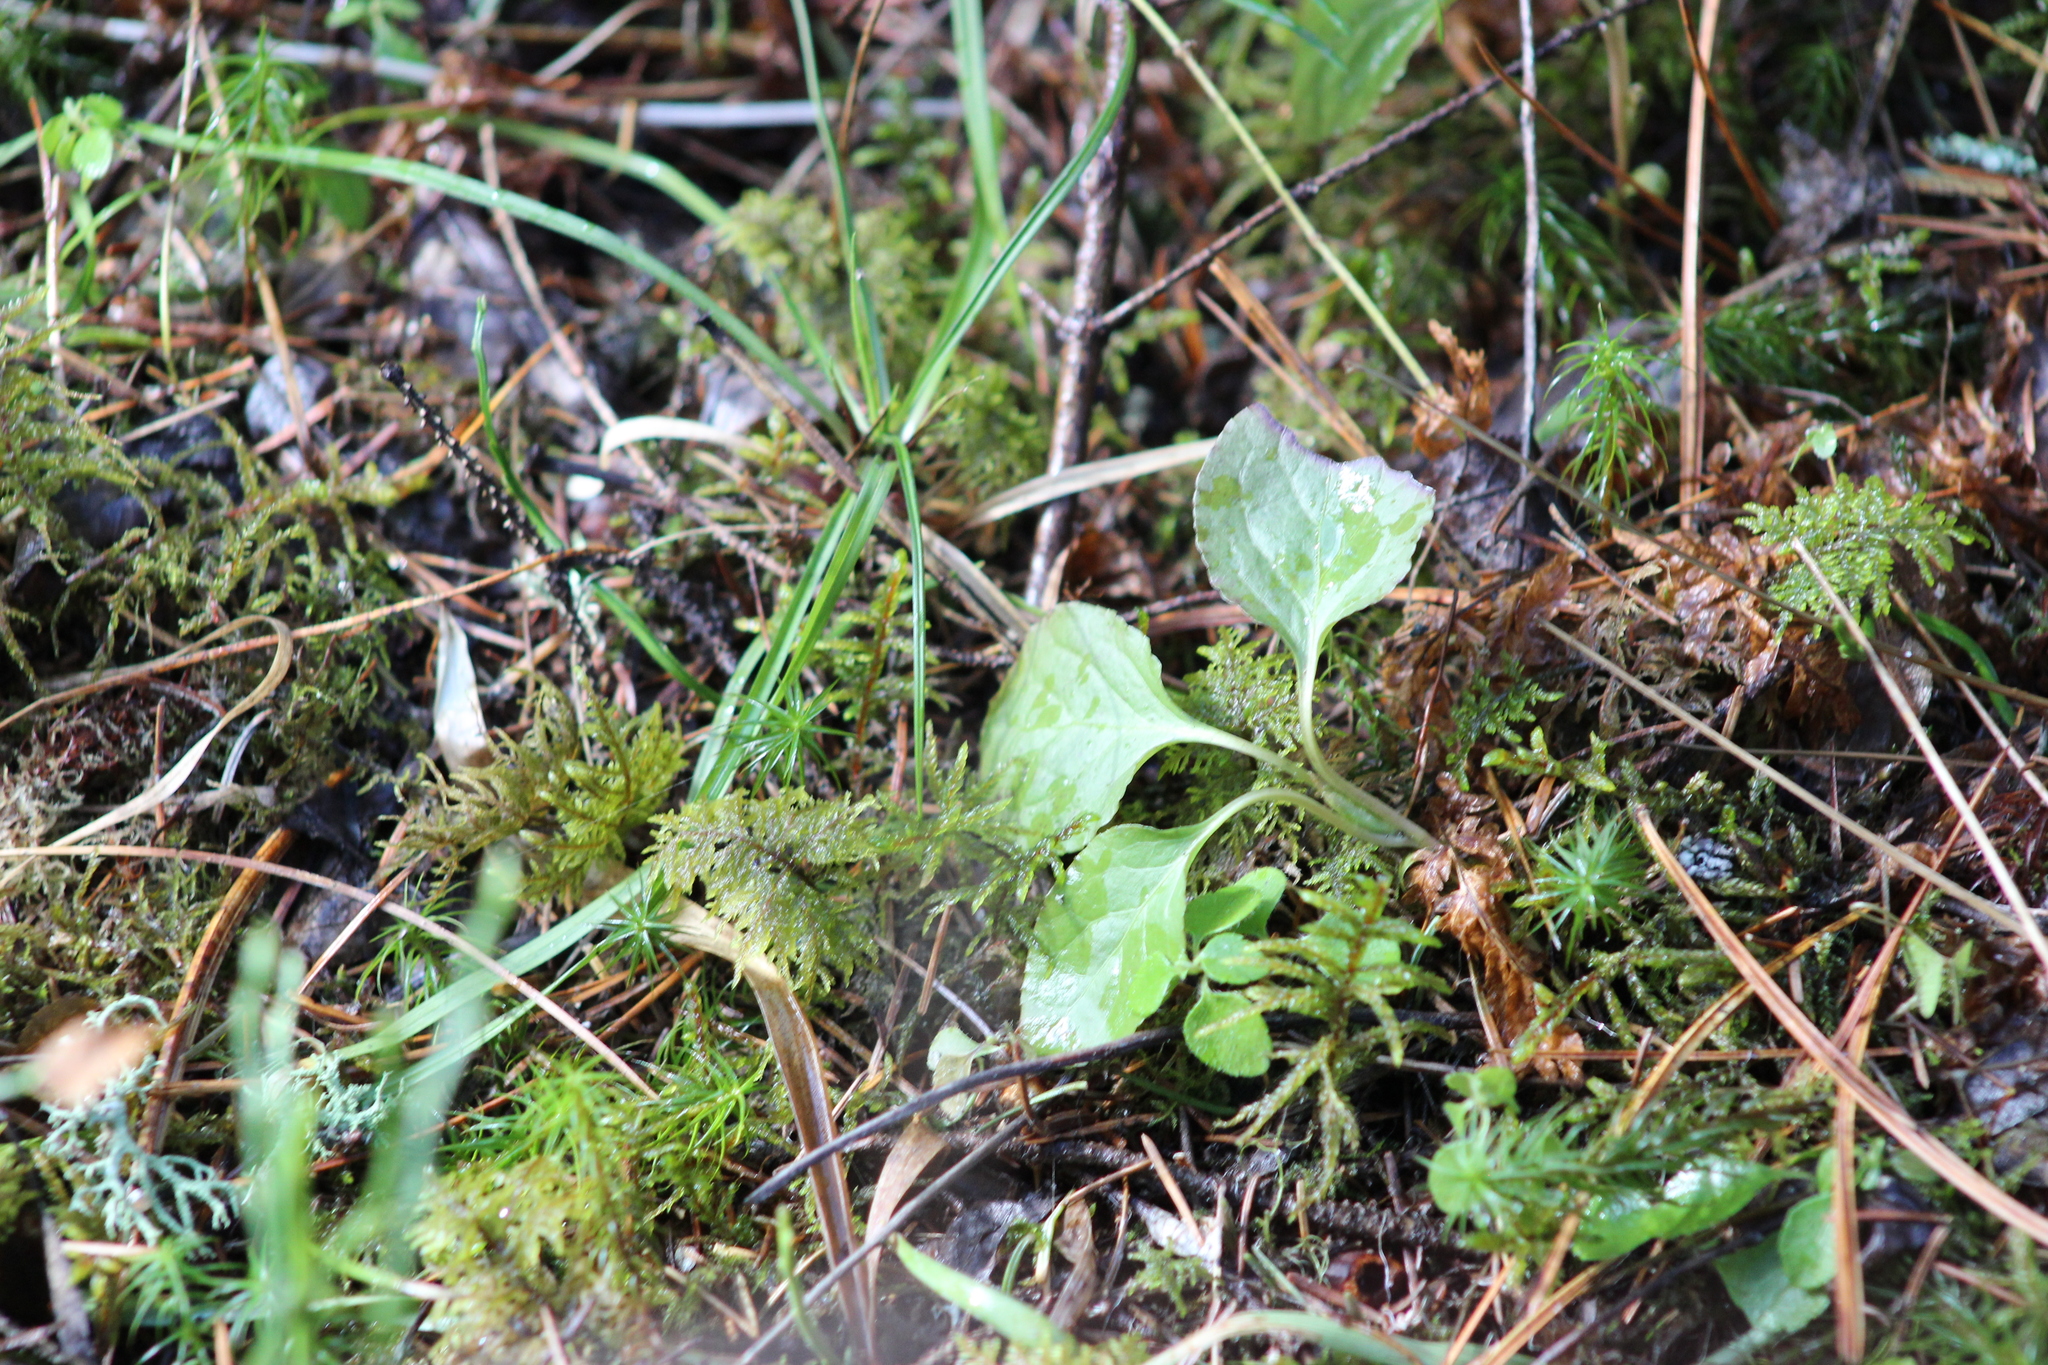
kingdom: Plantae
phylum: Tracheophyta
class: Magnoliopsida
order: Ericales
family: Ericaceae
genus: Orthilia
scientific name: Orthilia secunda
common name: One-sided orthilia
